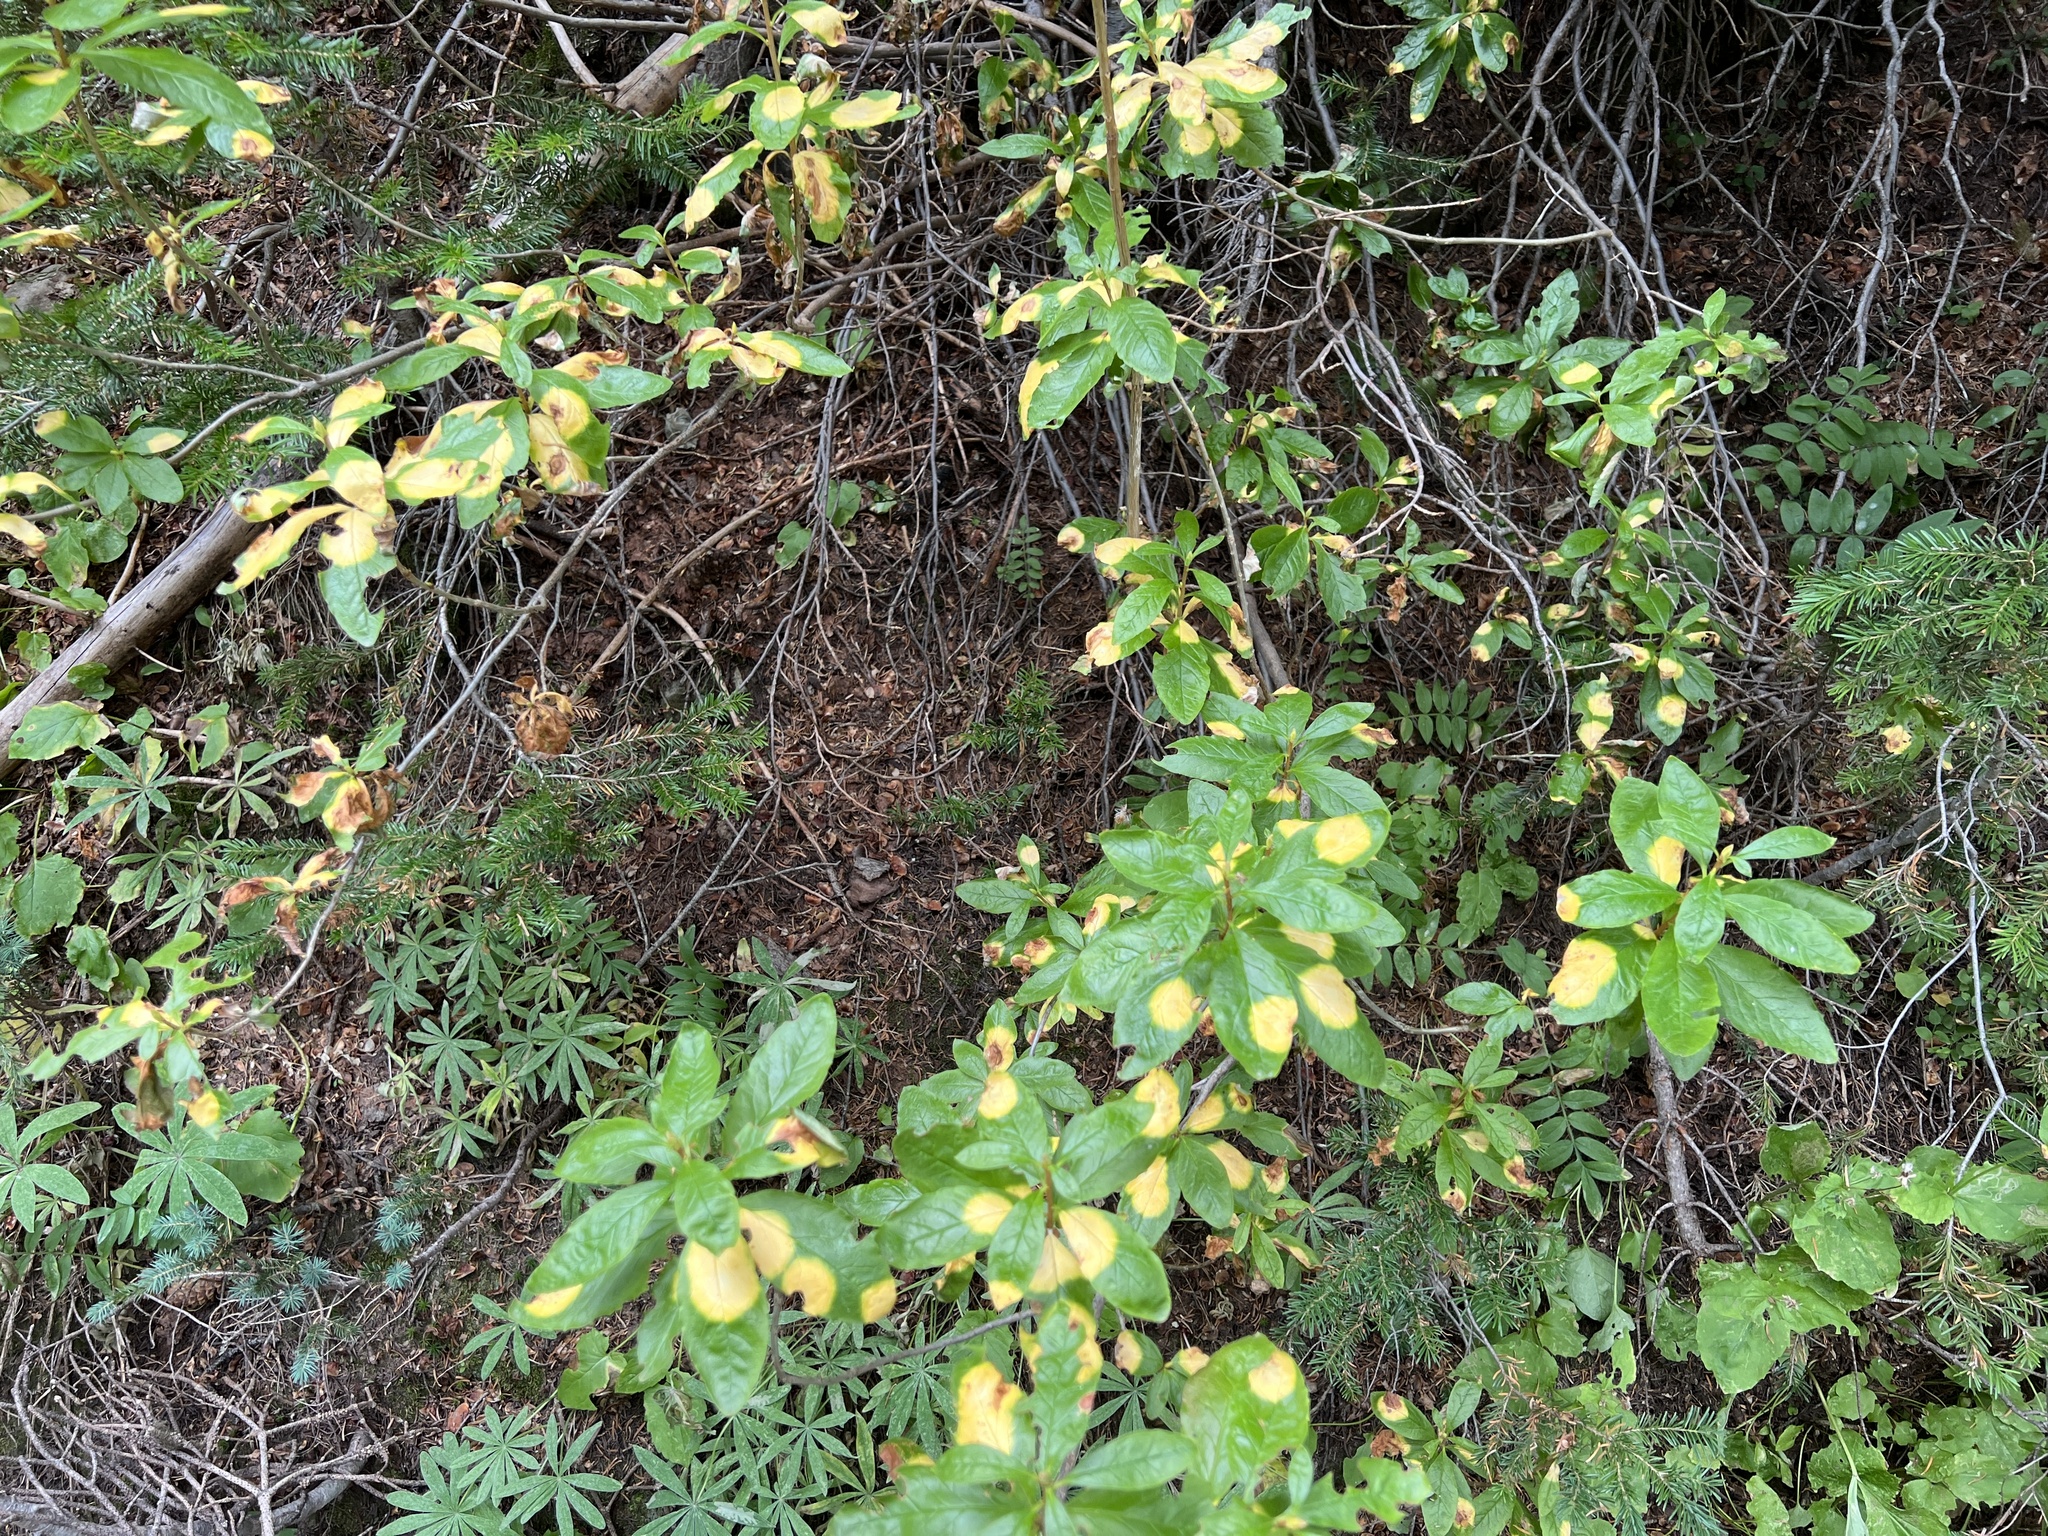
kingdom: Plantae
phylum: Tracheophyta
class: Magnoliopsida
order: Ericales
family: Ericaceae
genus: Rhododendron
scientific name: Rhododendron albiflorum
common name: White rhododendron
